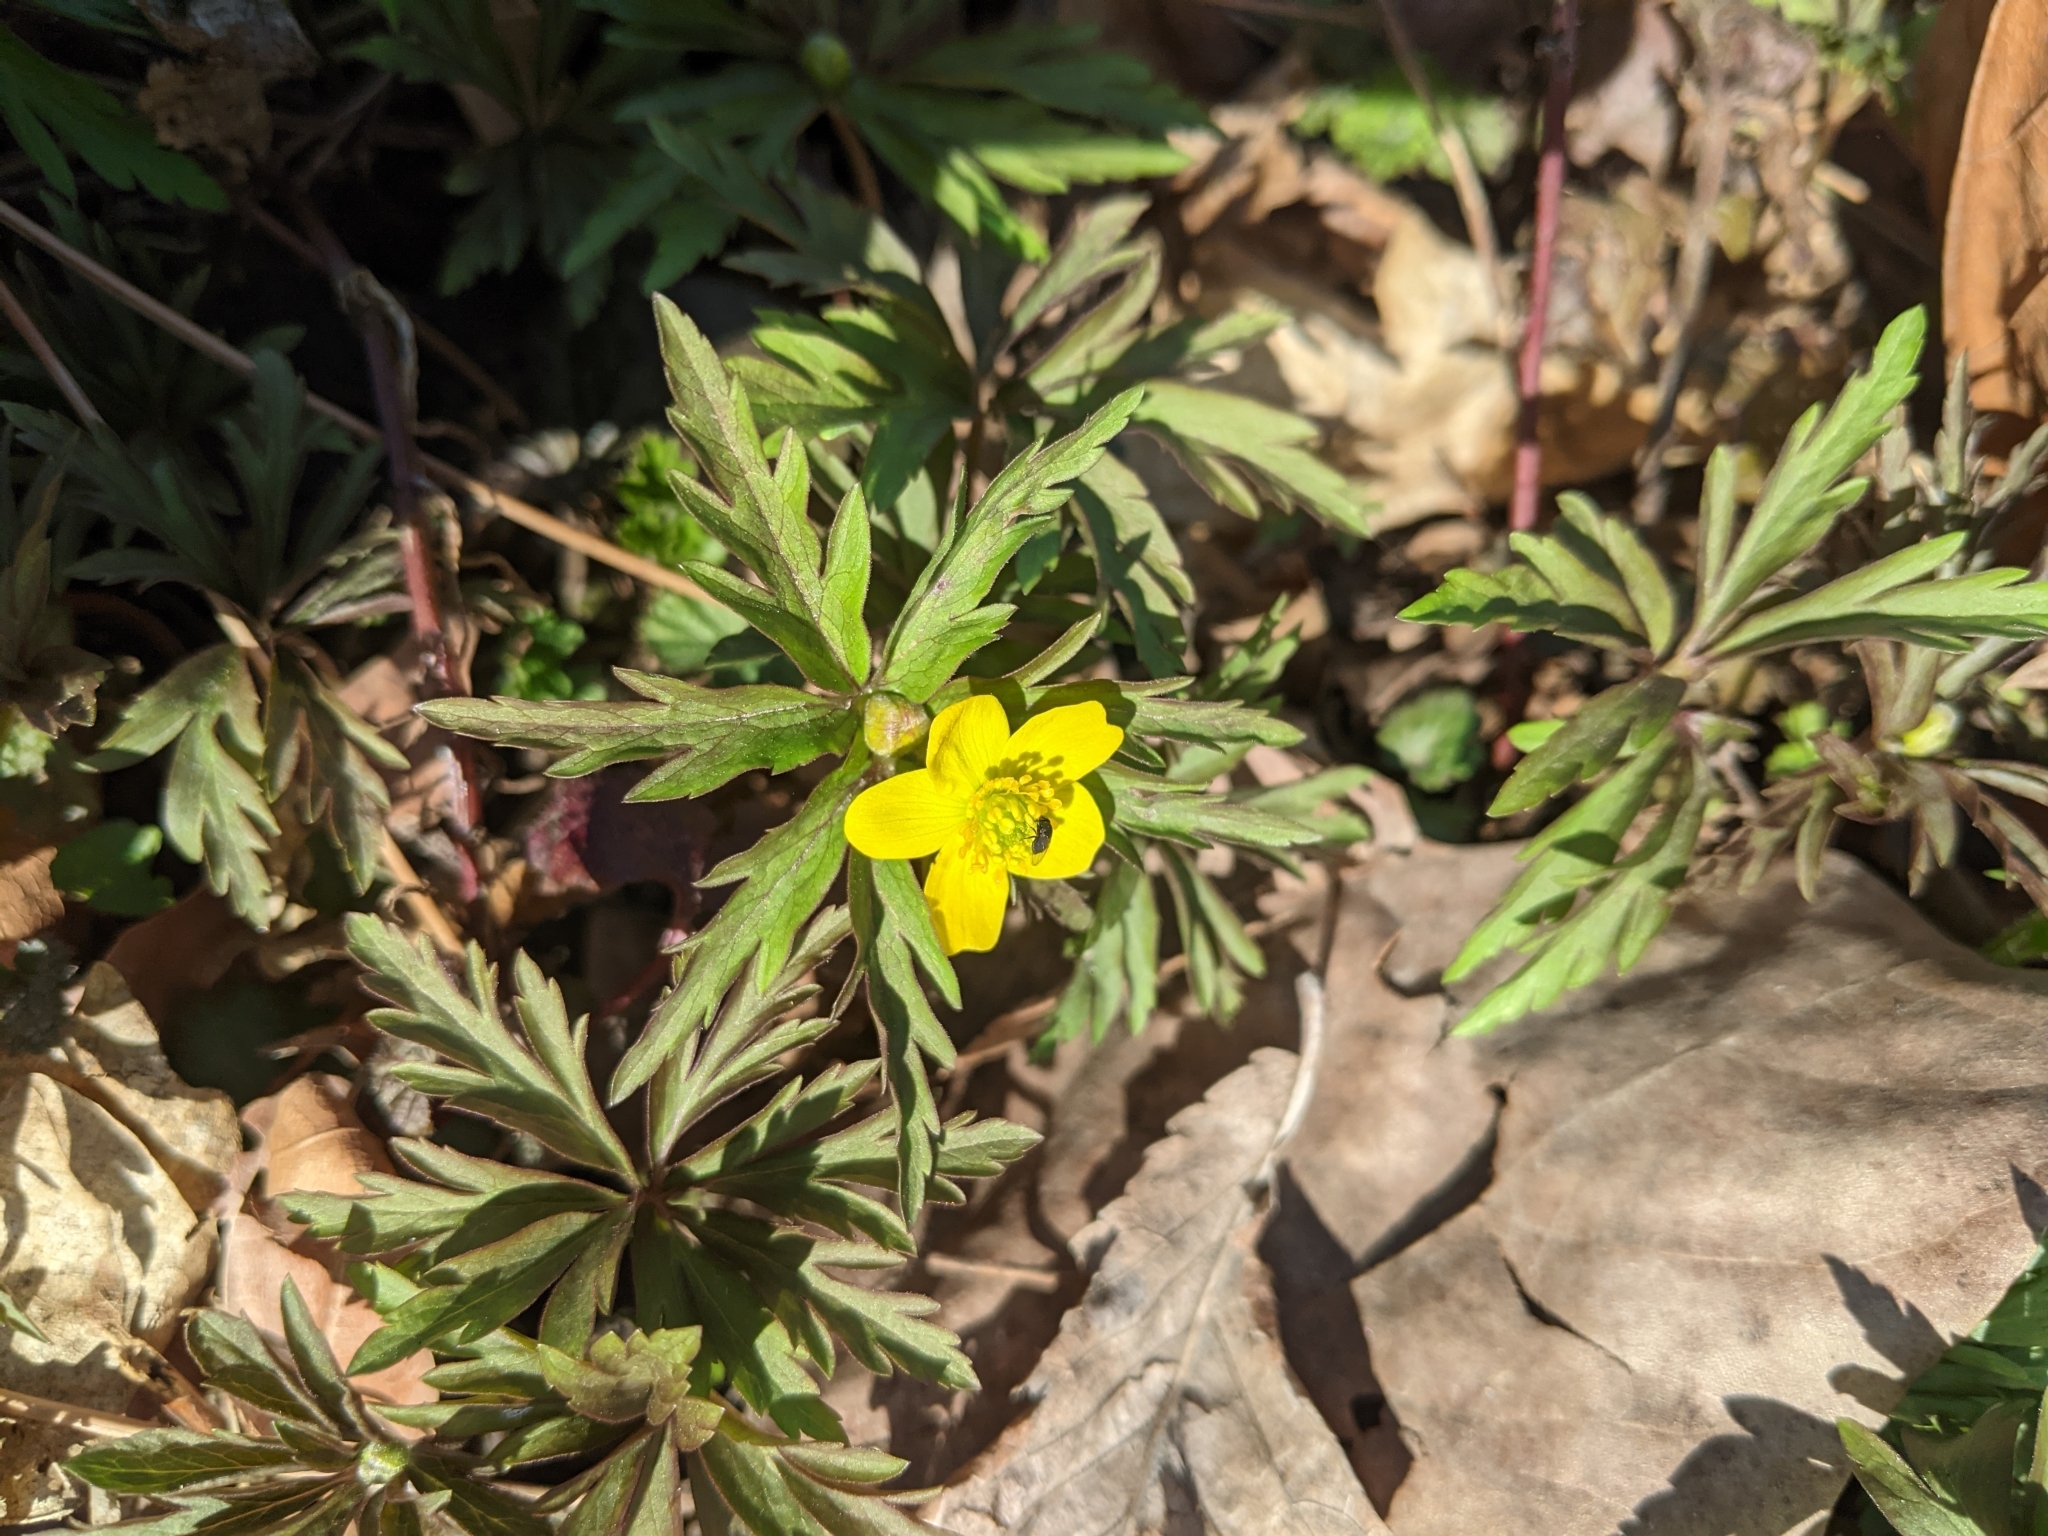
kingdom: Plantae
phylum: Tracheophyta
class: Magnoliopsida
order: Ranunculales
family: Ranunculaceae
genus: Anemone
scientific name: Anemone ranunculoides
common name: Yellow anemone
